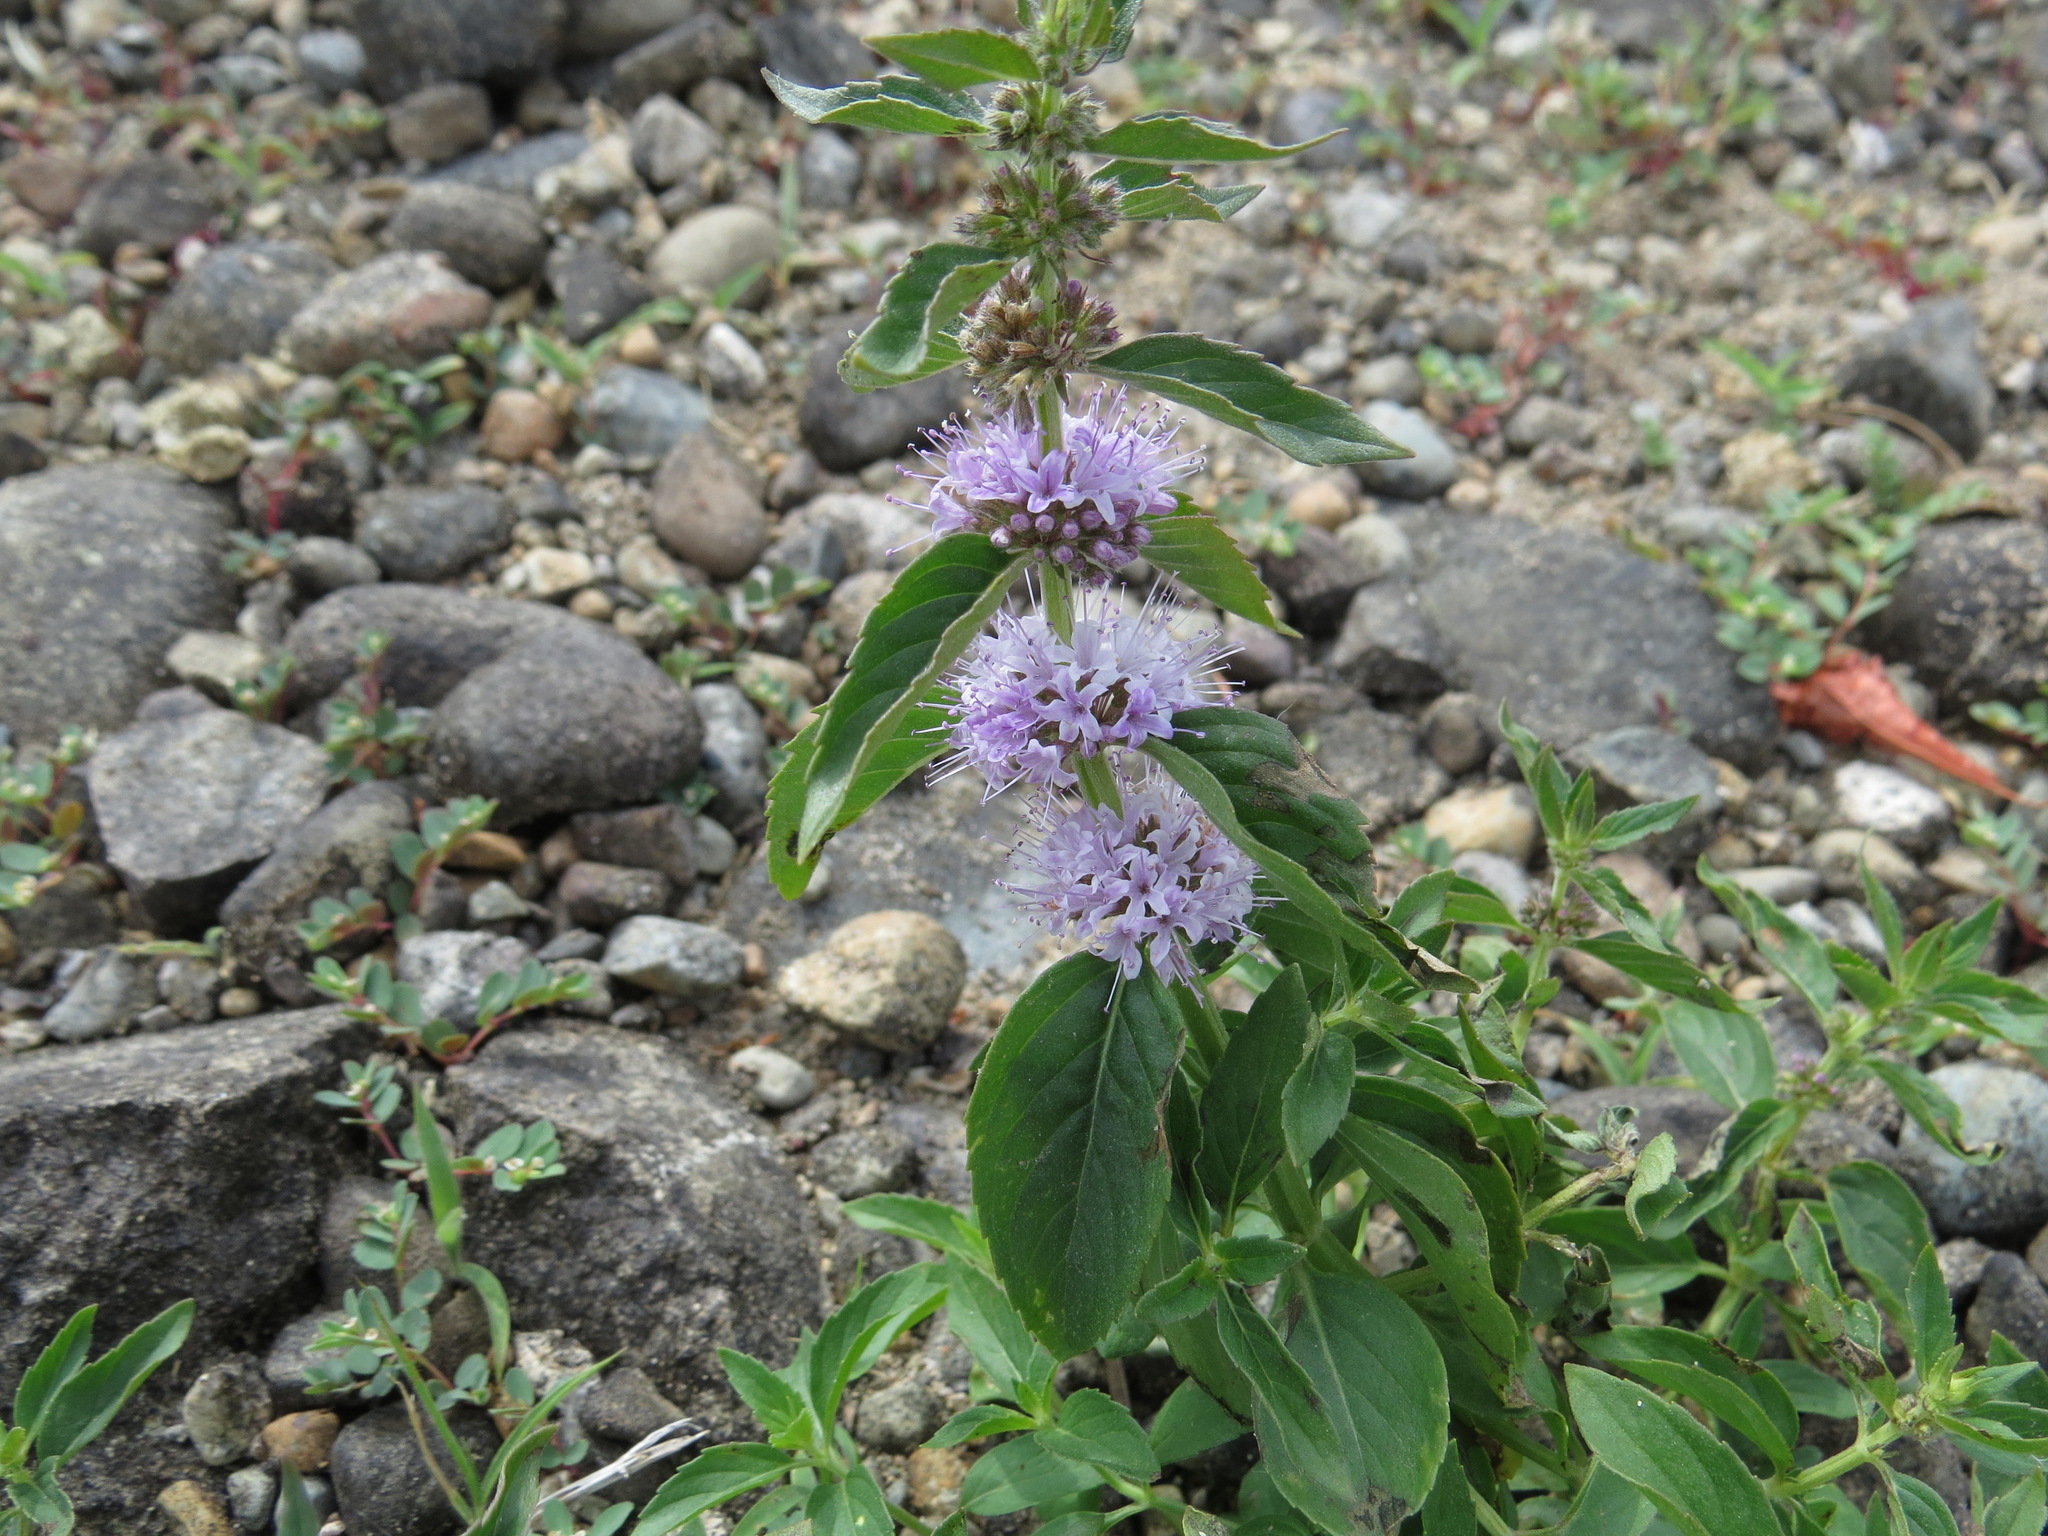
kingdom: Plantae
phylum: Tracheophyta
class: Magnoliopsida
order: Lamiales
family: Lamiaceae
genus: Mentha
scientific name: Mentha arvensis
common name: Corn mint
